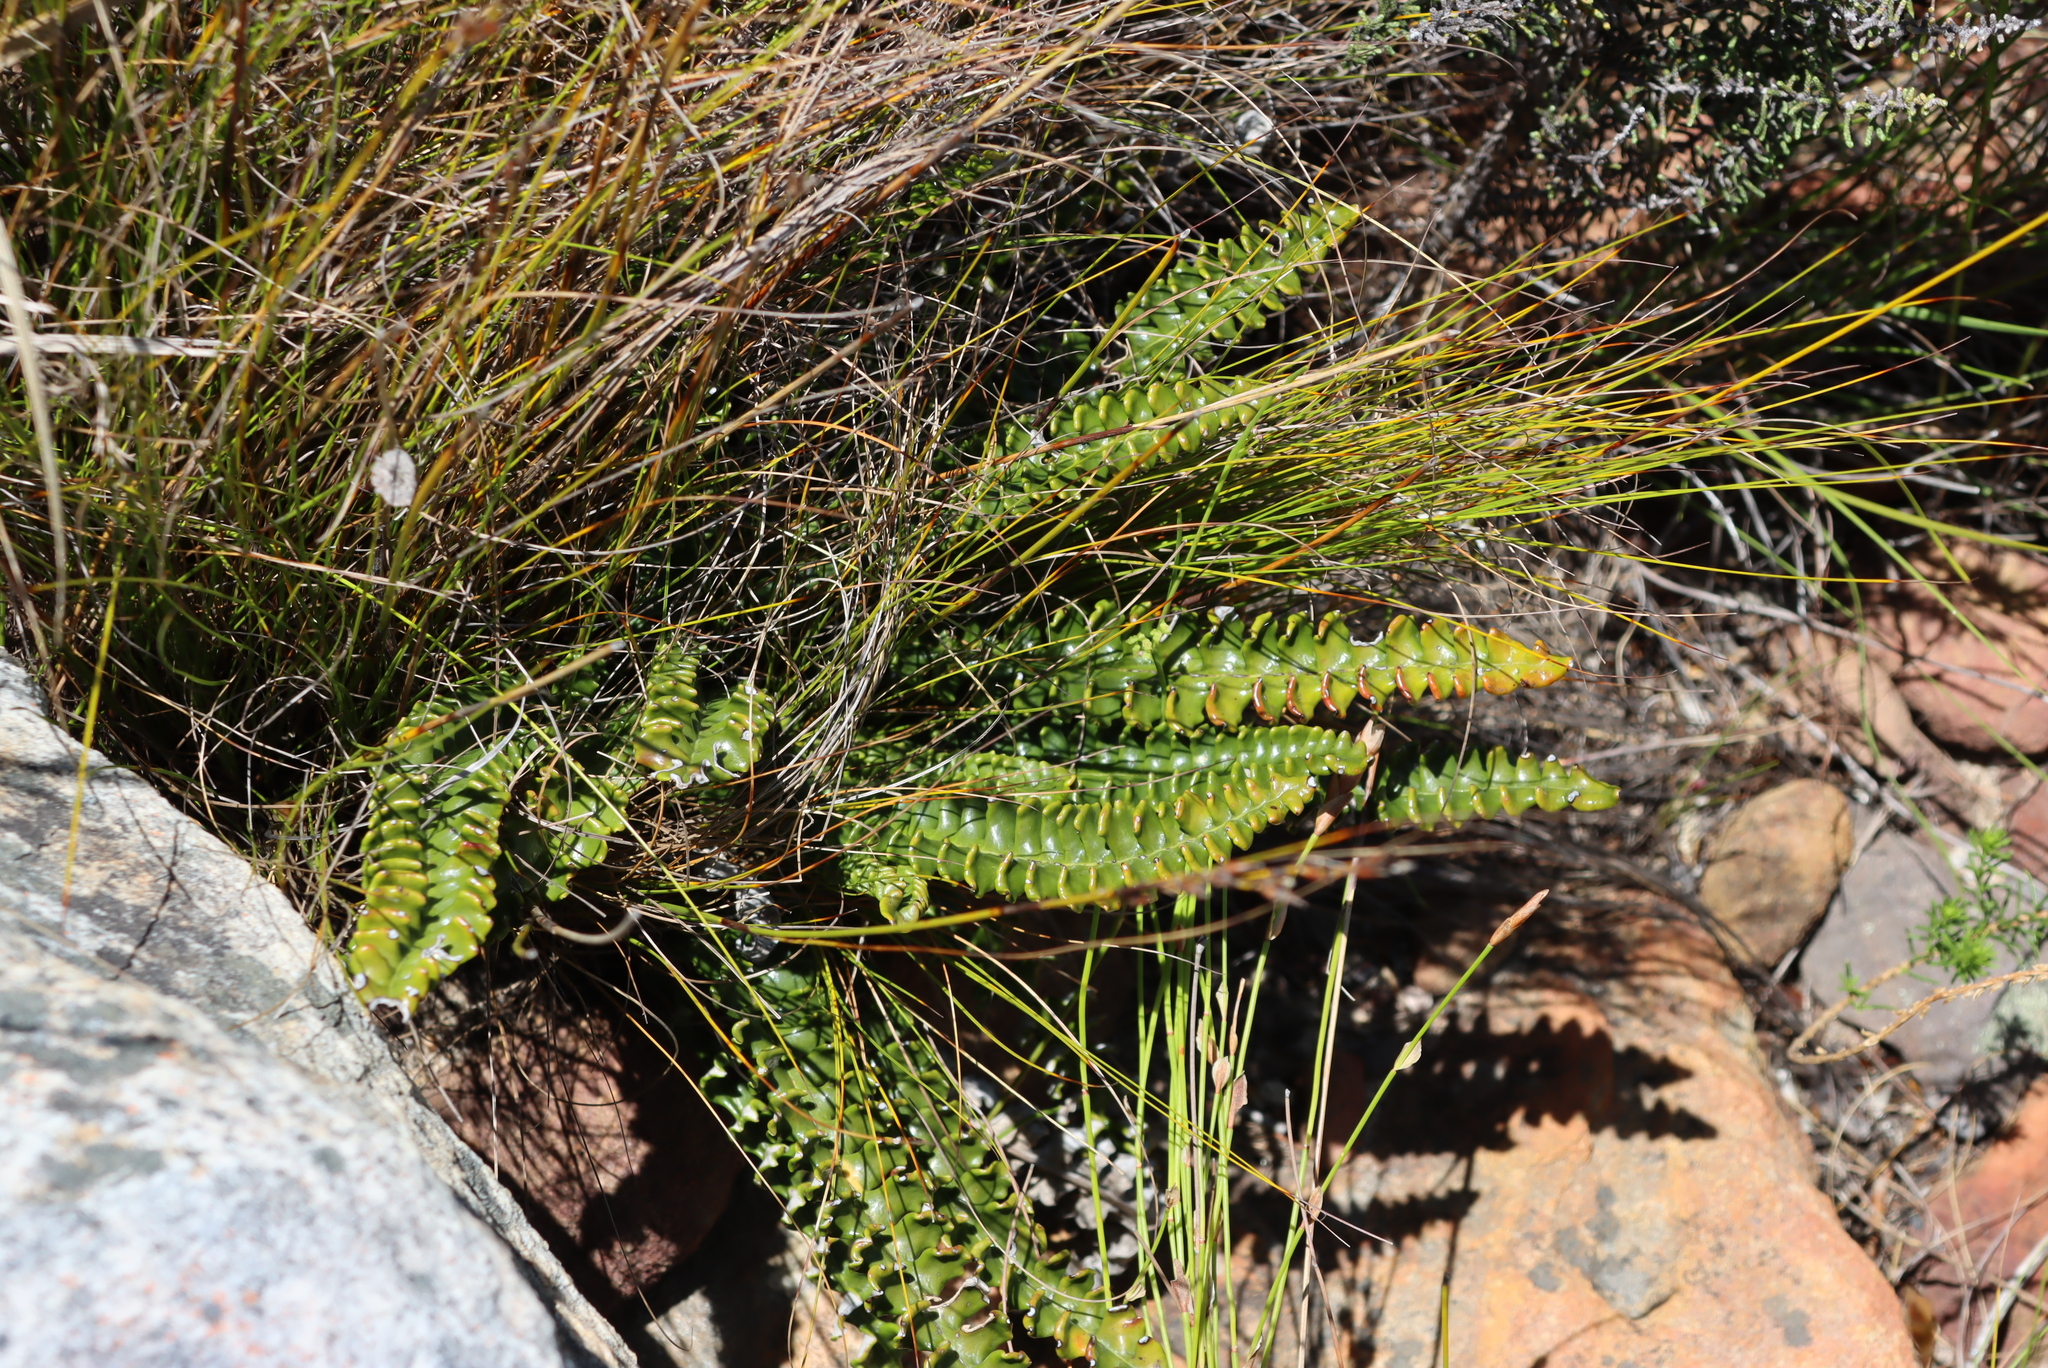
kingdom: Plantae
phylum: Tracheophyta
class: Magnoliopsida
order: Asterales
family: Asteraceae
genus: Gerbera
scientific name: Gerbera linnaei
